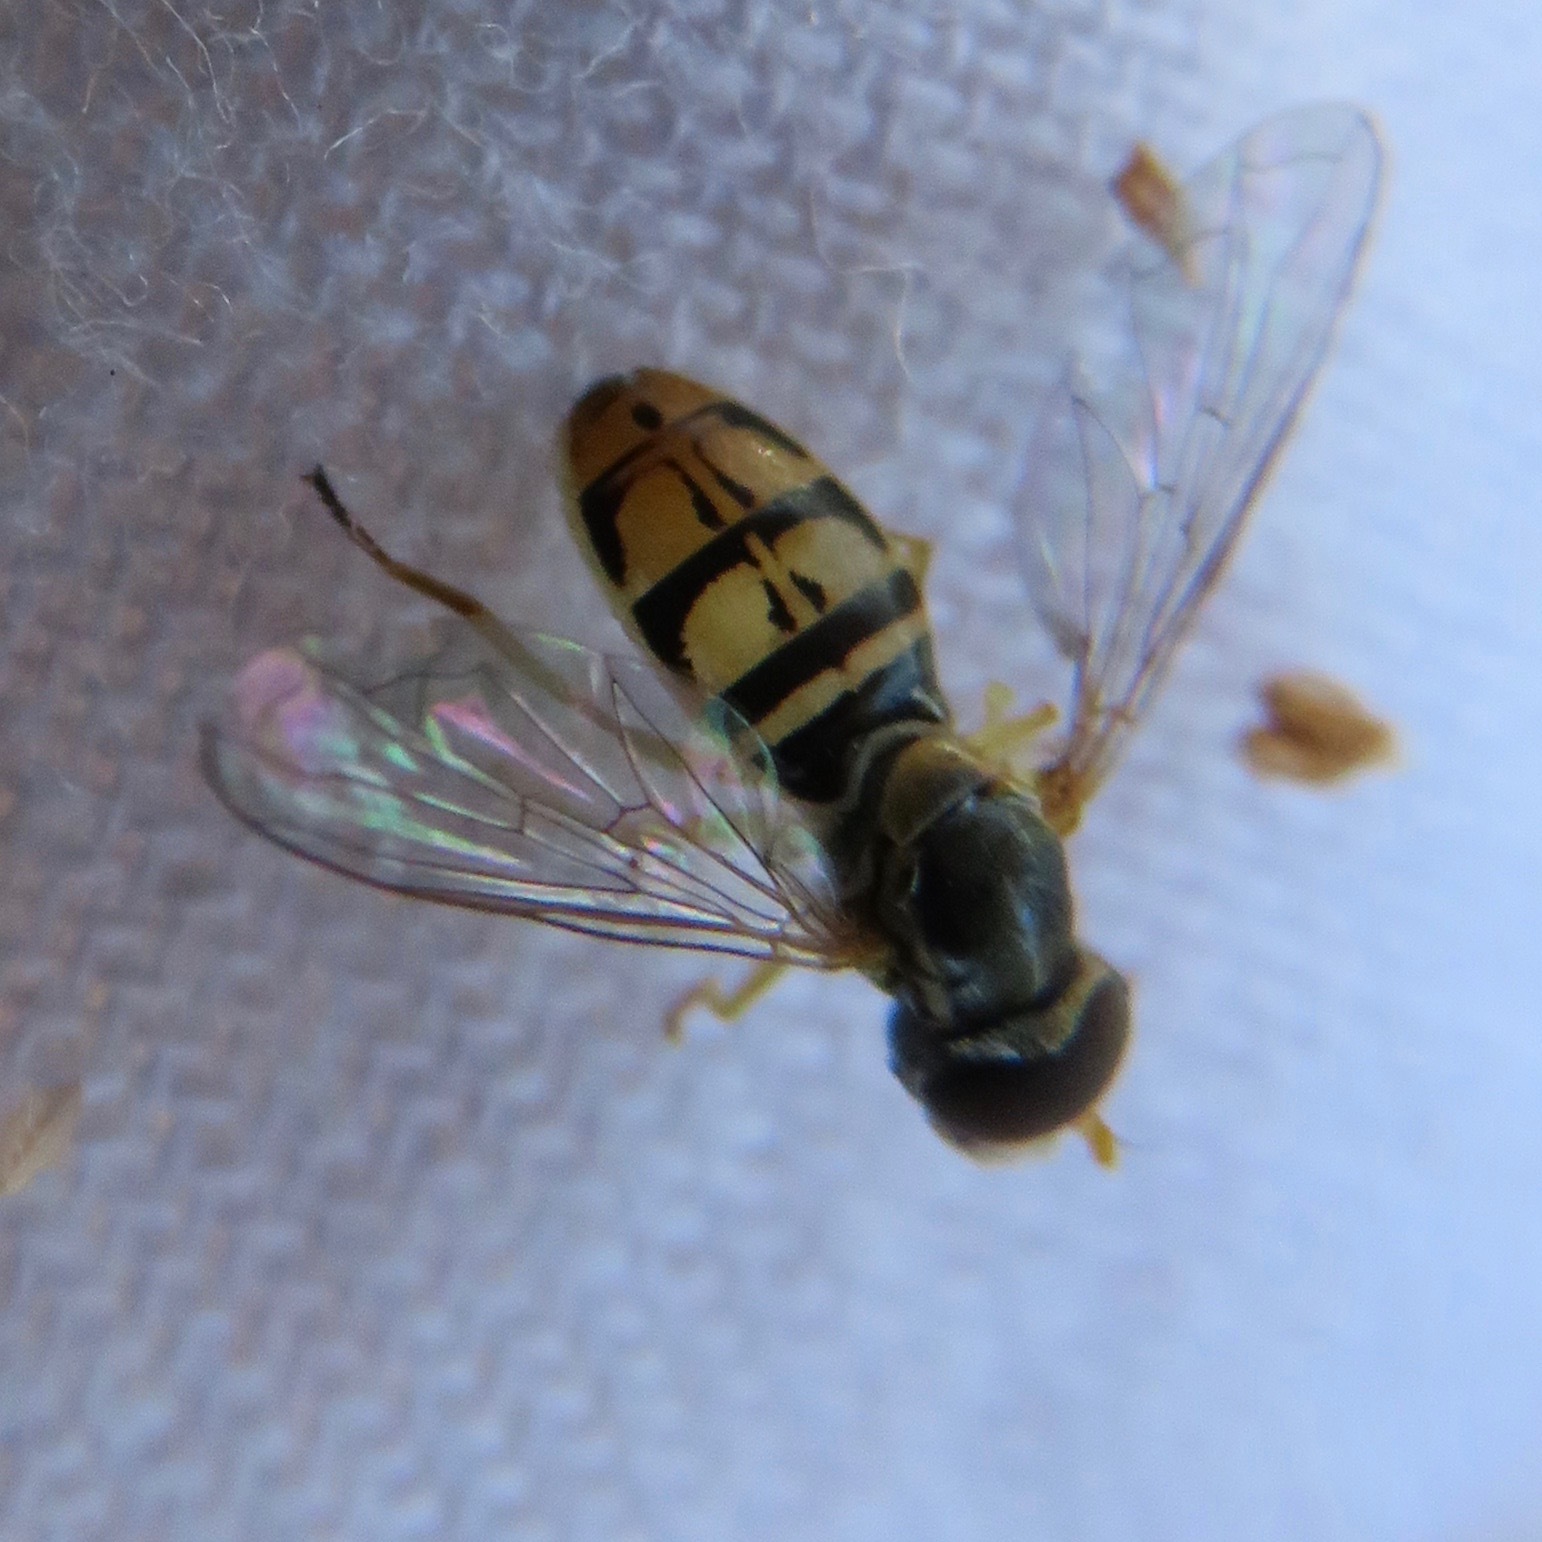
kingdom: Animalia
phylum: Arthropoda
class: Insecta
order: Diptera
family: Syrphidae
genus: Toxomerus
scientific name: Toxomerus marginatus
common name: Syrphid fly
